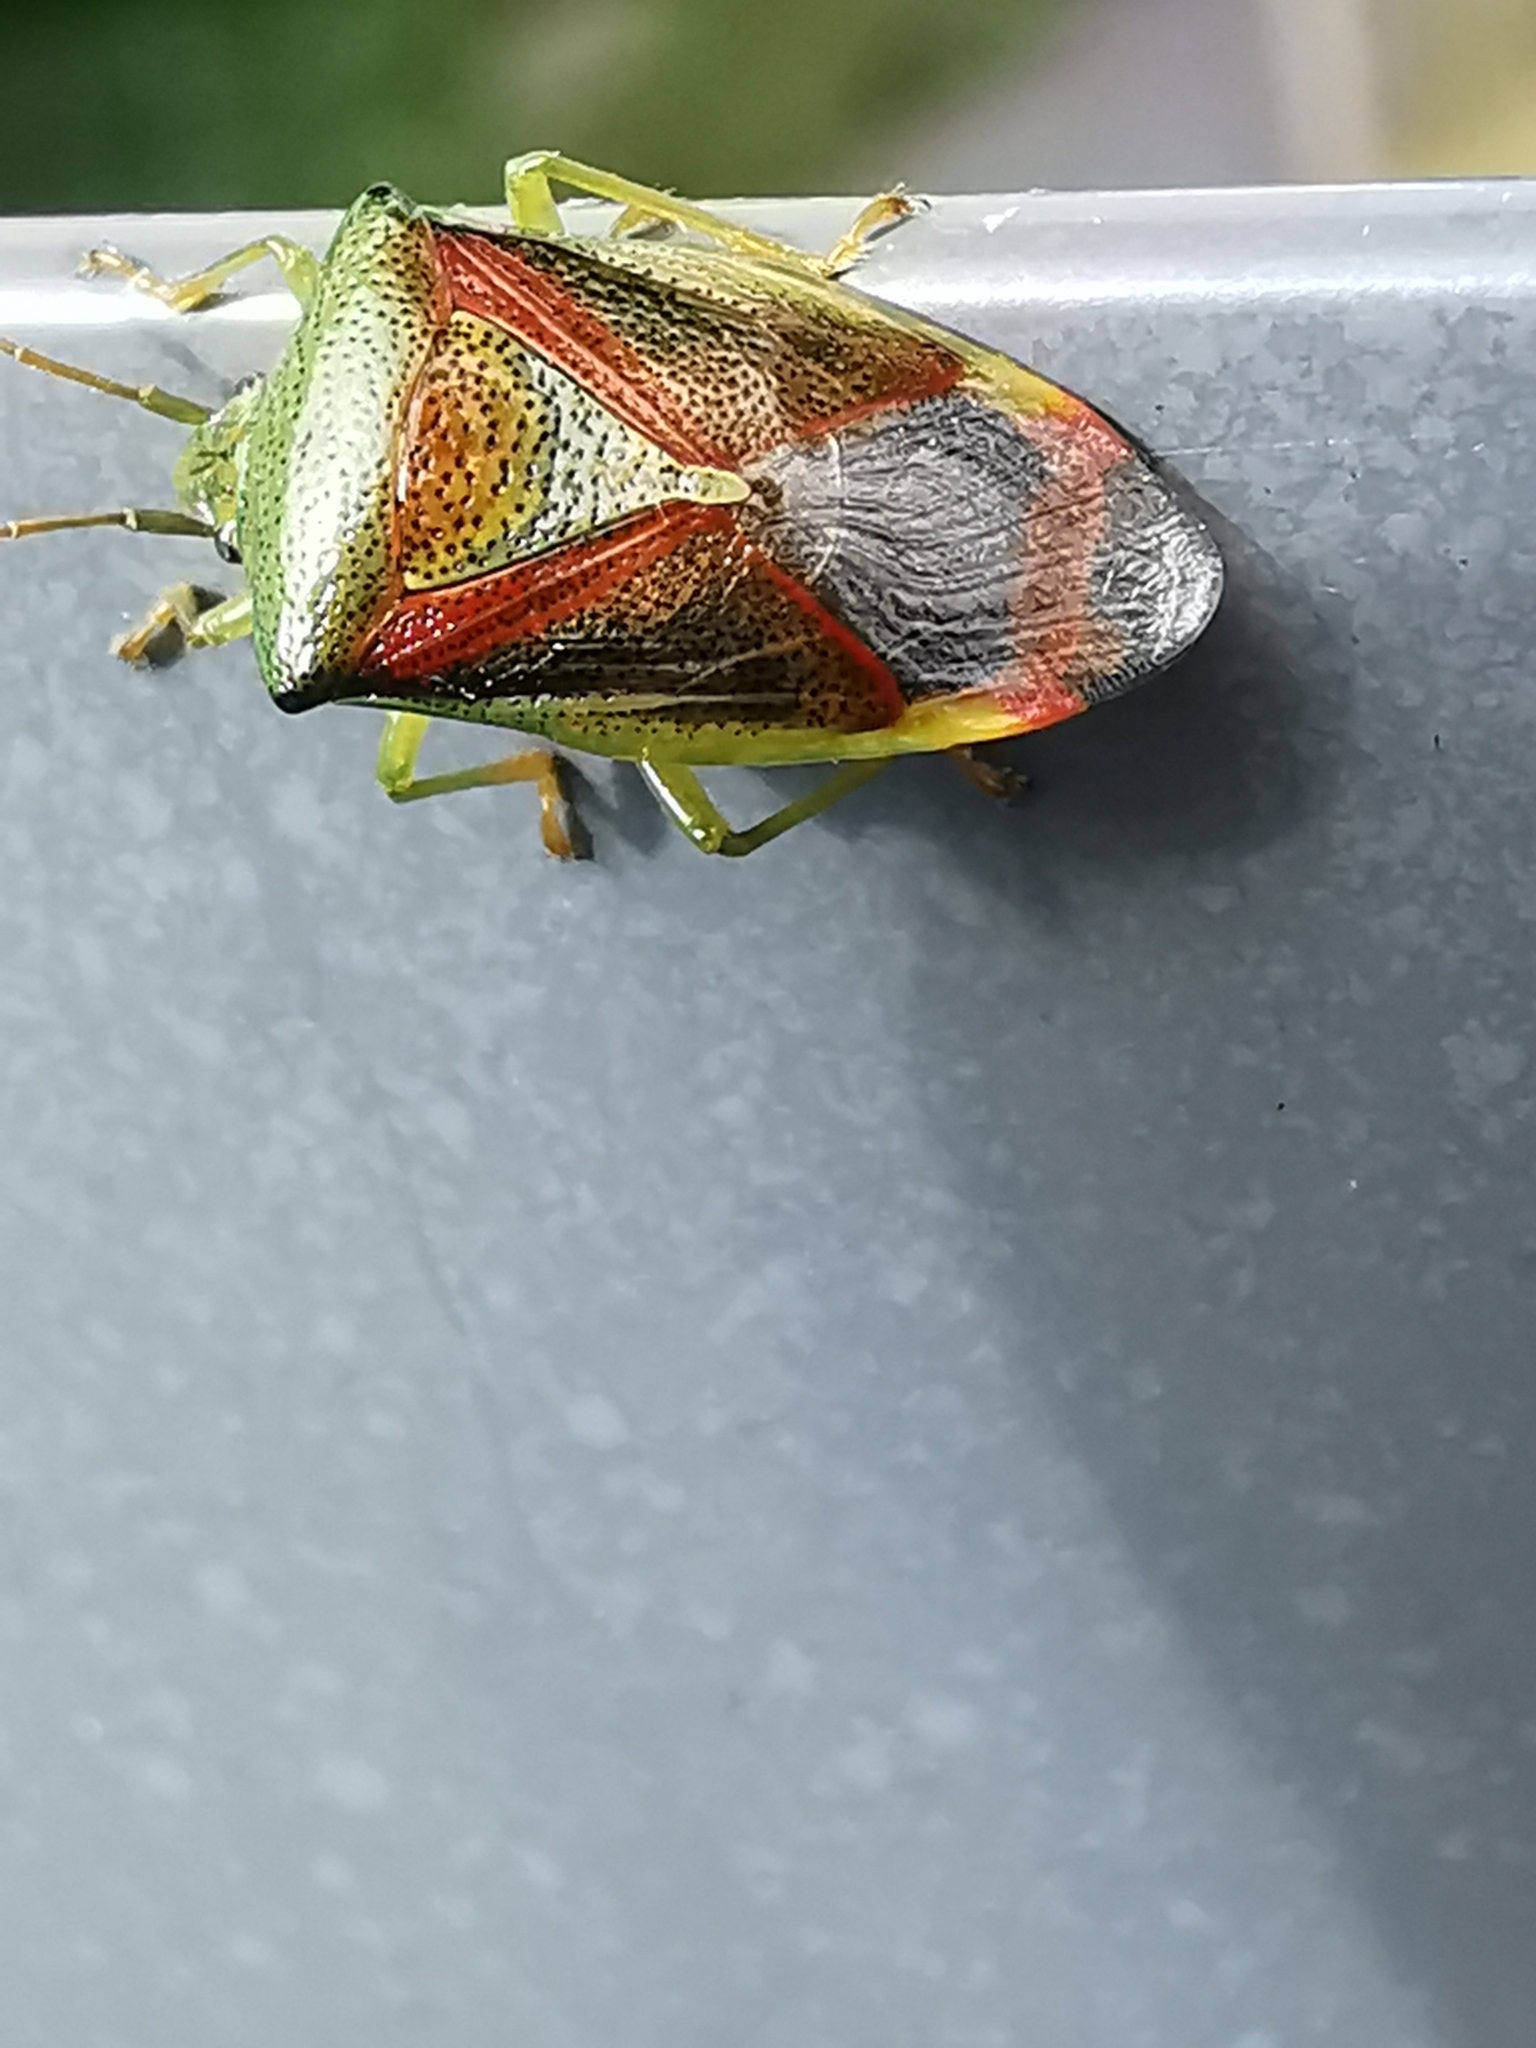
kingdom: Animalia
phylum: Arthropoda
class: Insecta
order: Hemiptera
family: Acanthosomatidae
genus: Elasmostethus
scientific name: Elasmostethus interstinctus
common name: Birch shieldbug
